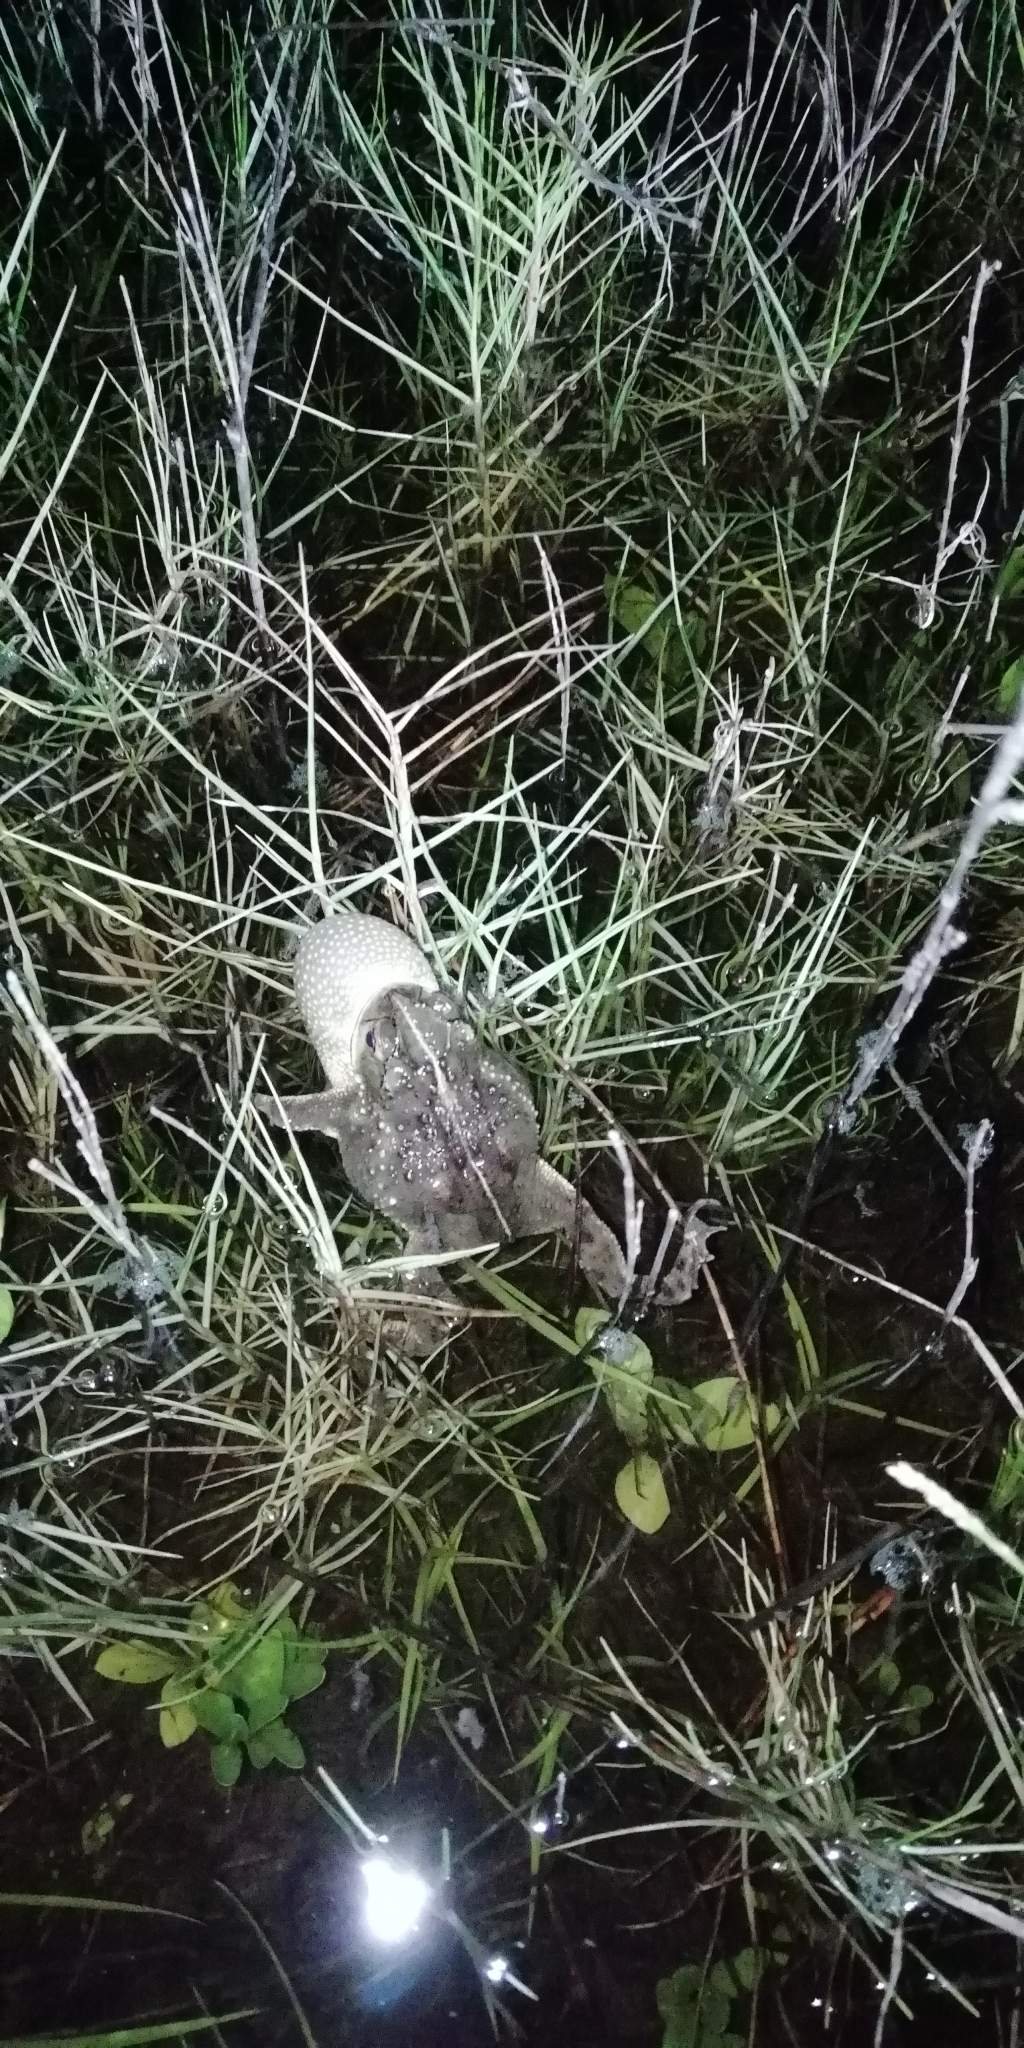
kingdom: Animalia
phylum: Chordata
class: Amphibia
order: Anura
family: Bufonidae
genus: Rhinella
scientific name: Rhinella dorbignyi
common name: D´orbigny’s toad
